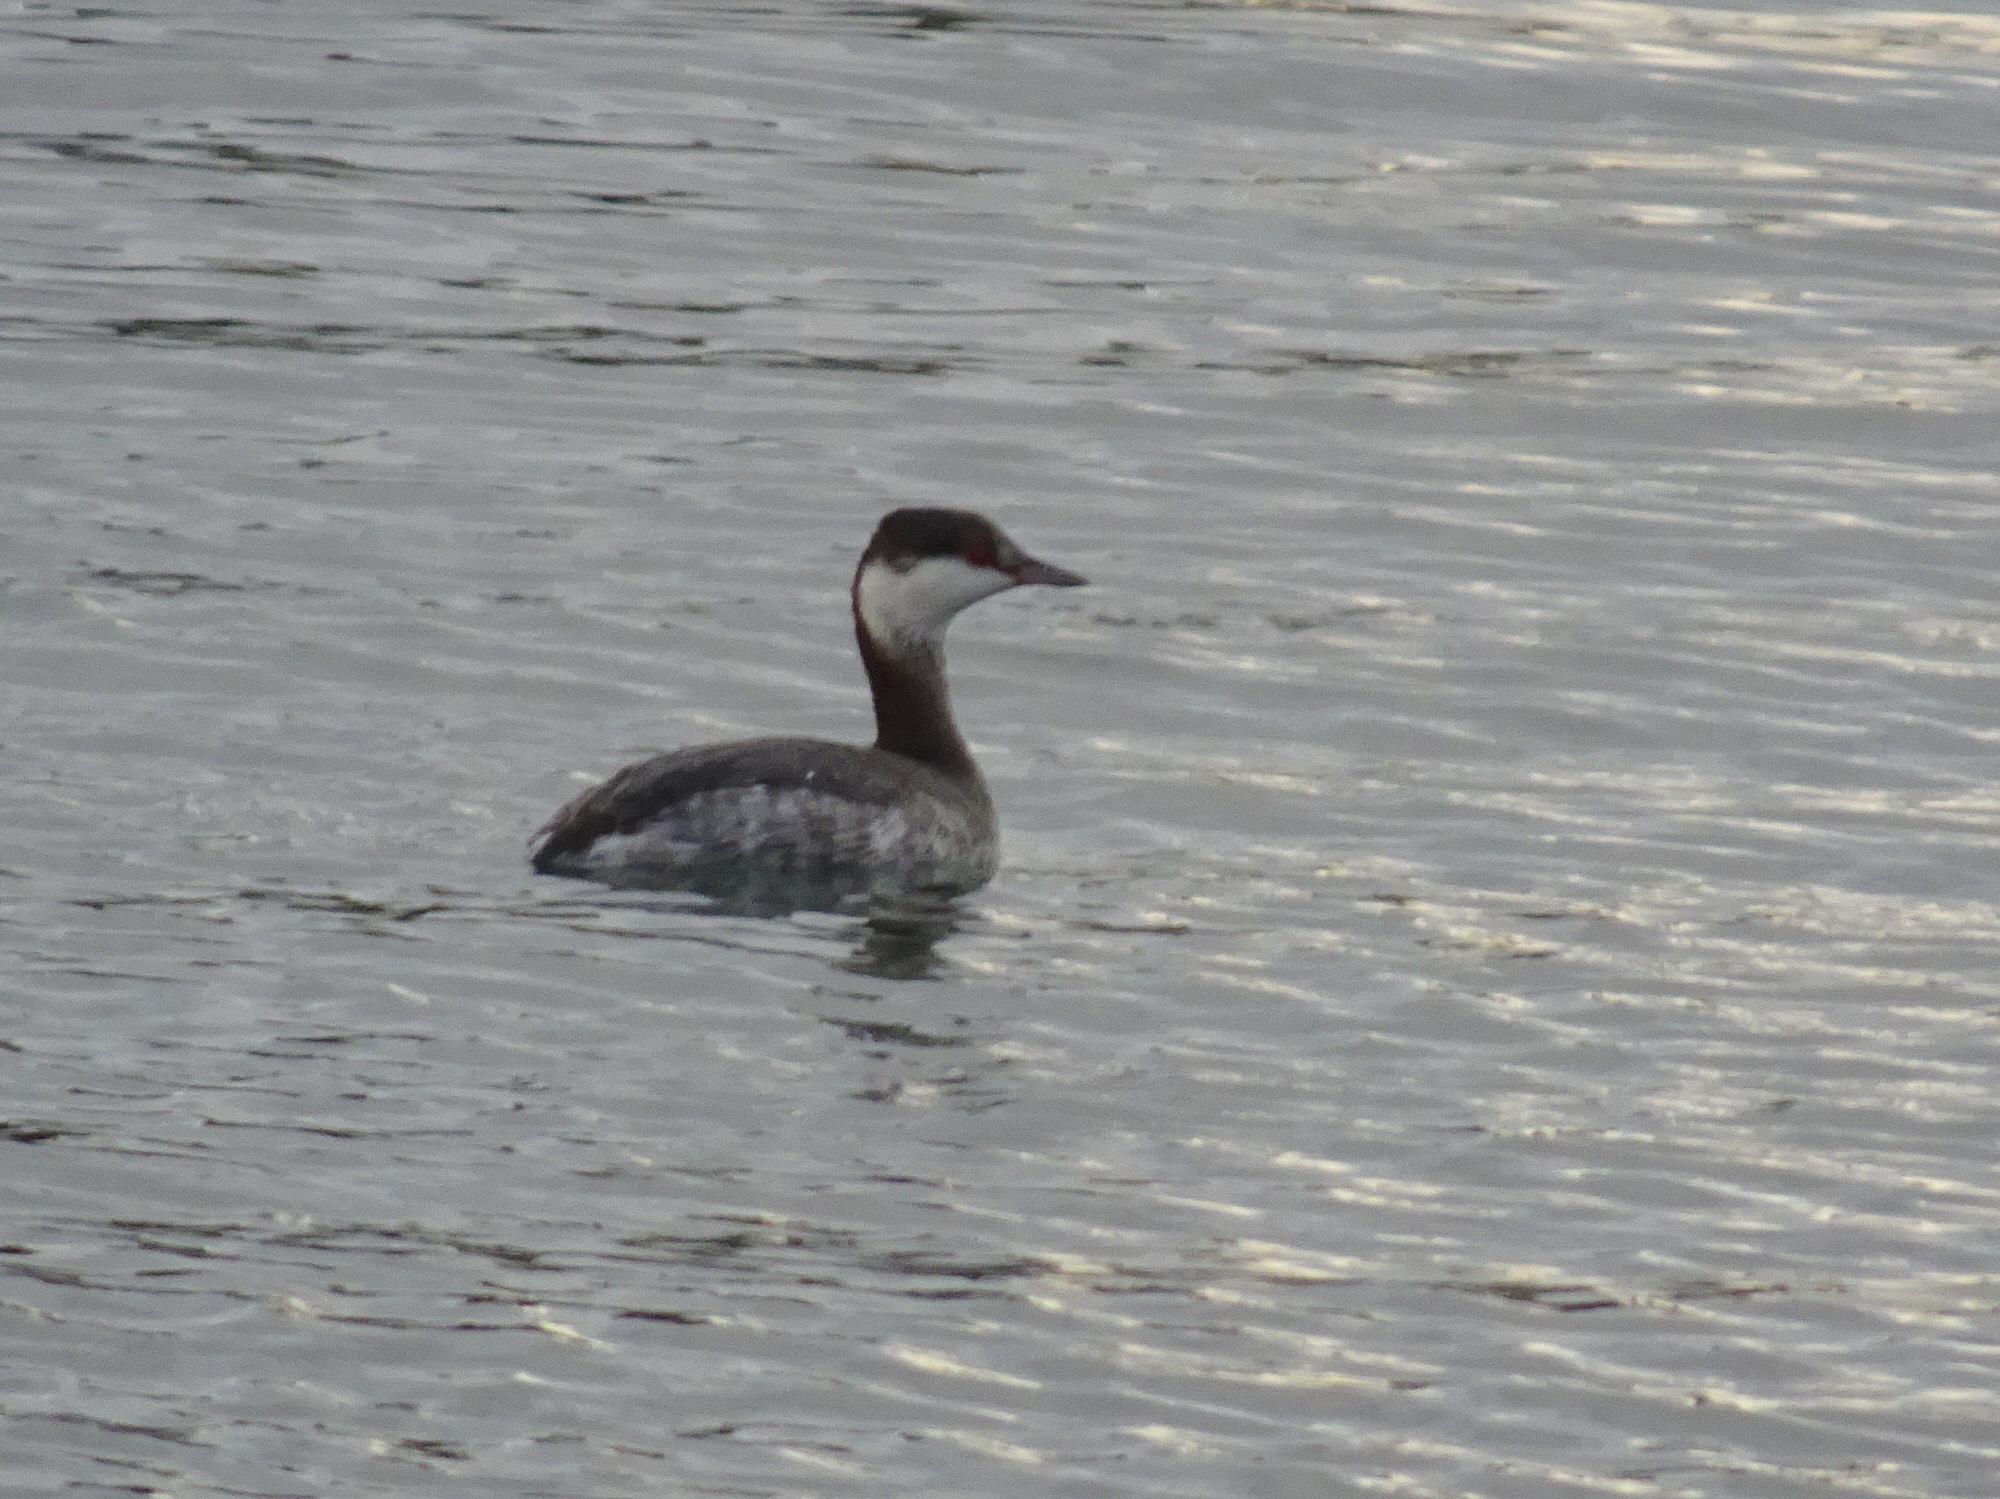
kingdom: Animalia
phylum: Chordata
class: Aves
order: Podicipediformes
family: Podicipedidae
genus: Podiceps
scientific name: Podiceps auritus
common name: Horned grebe
